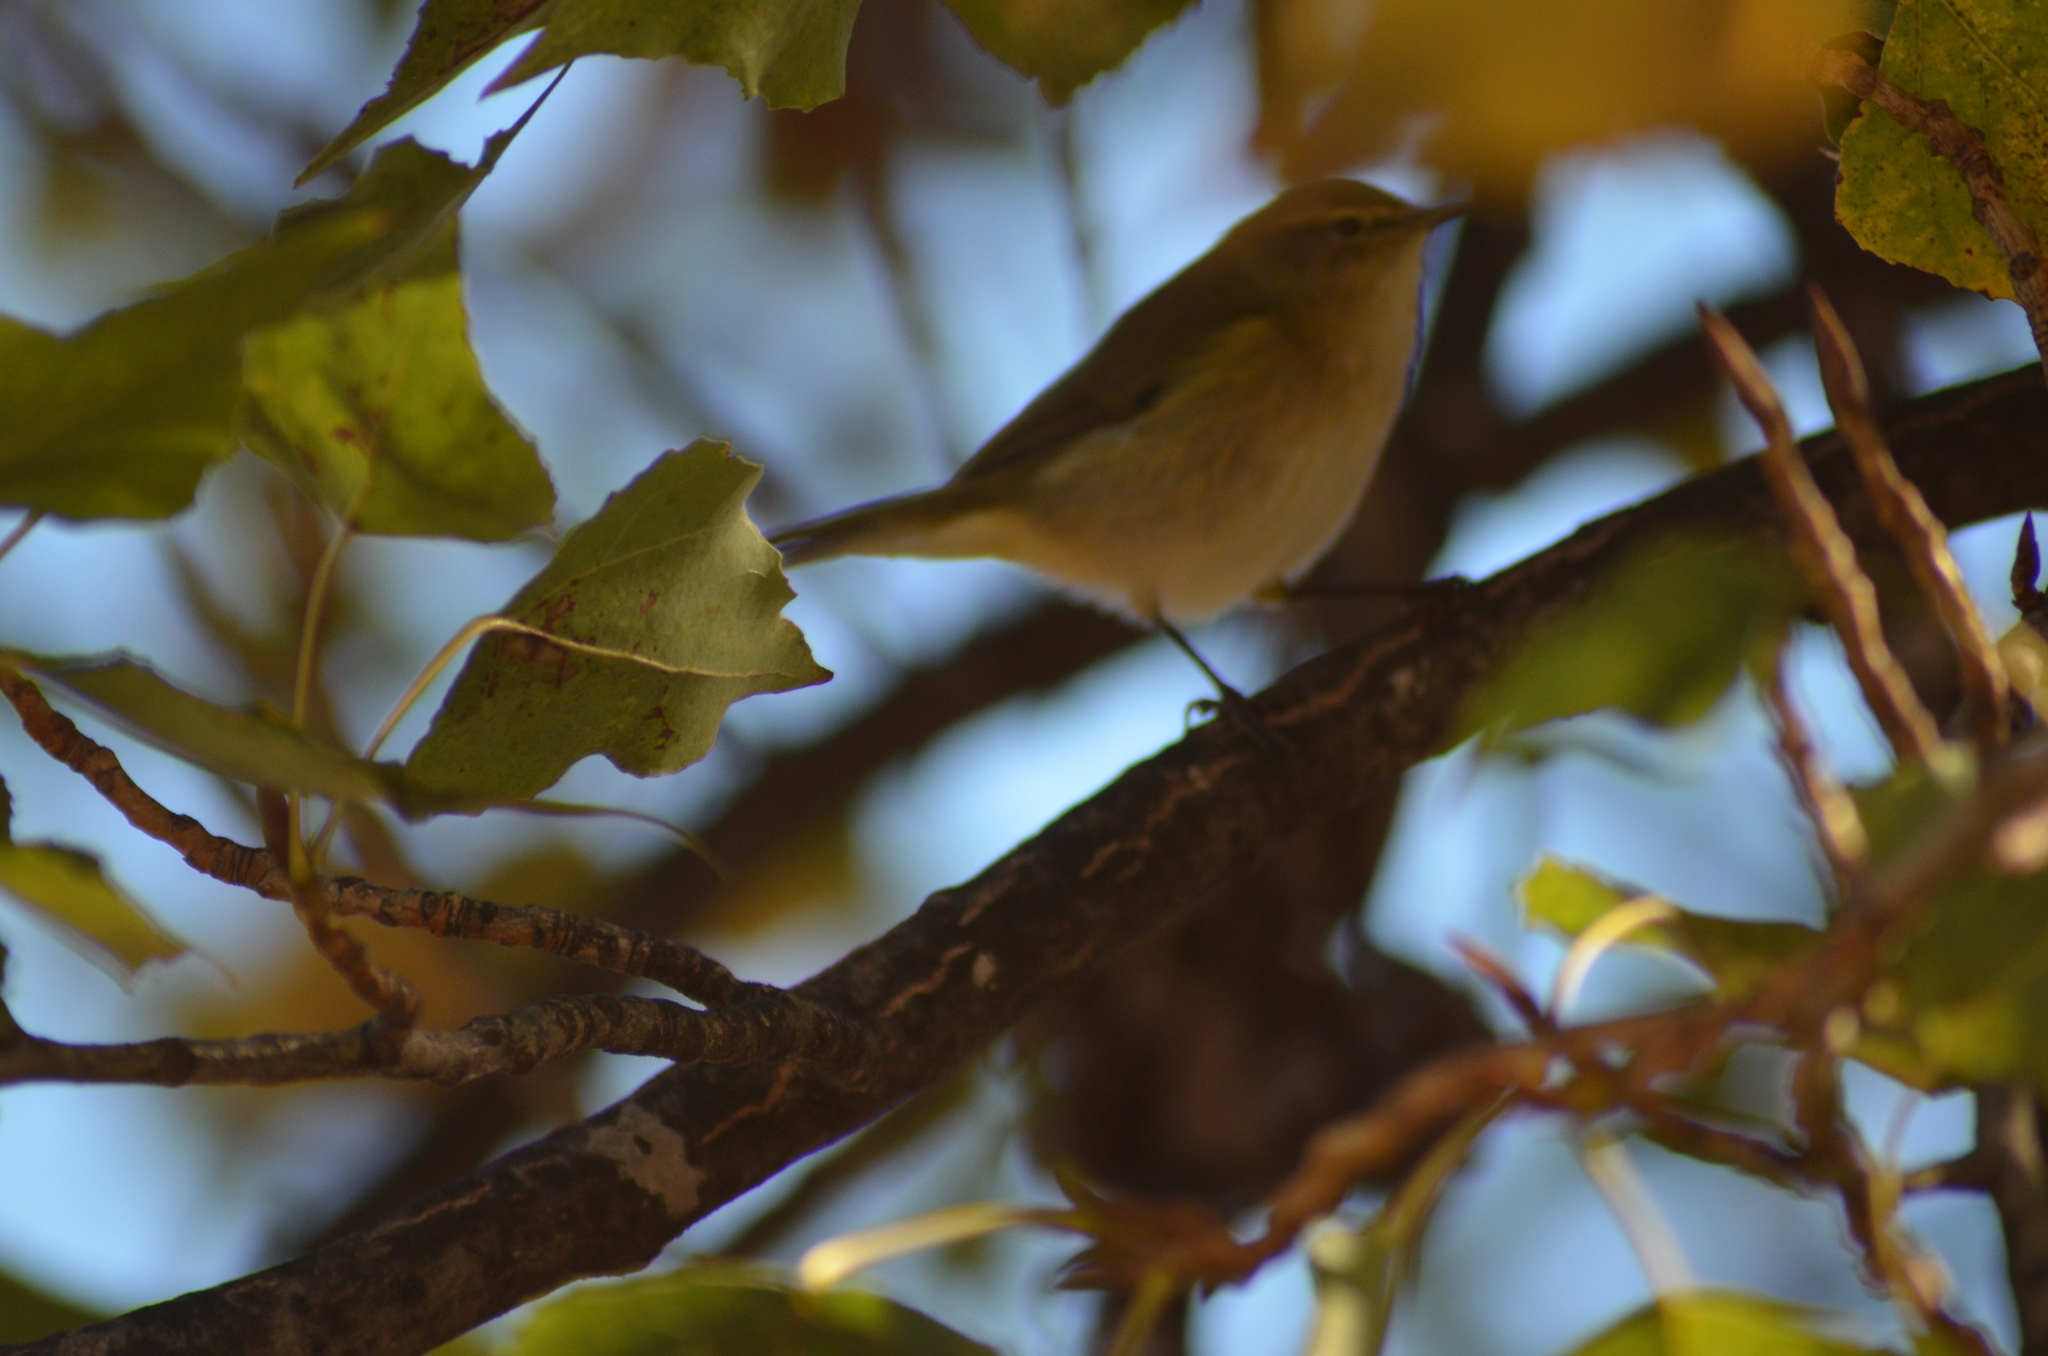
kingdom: Animalia
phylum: Chordata
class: Aves
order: Passeriformes
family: Phylloscopidae
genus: Phylloscopus
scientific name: Phylloscopus collybita
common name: Common chiffchaff
